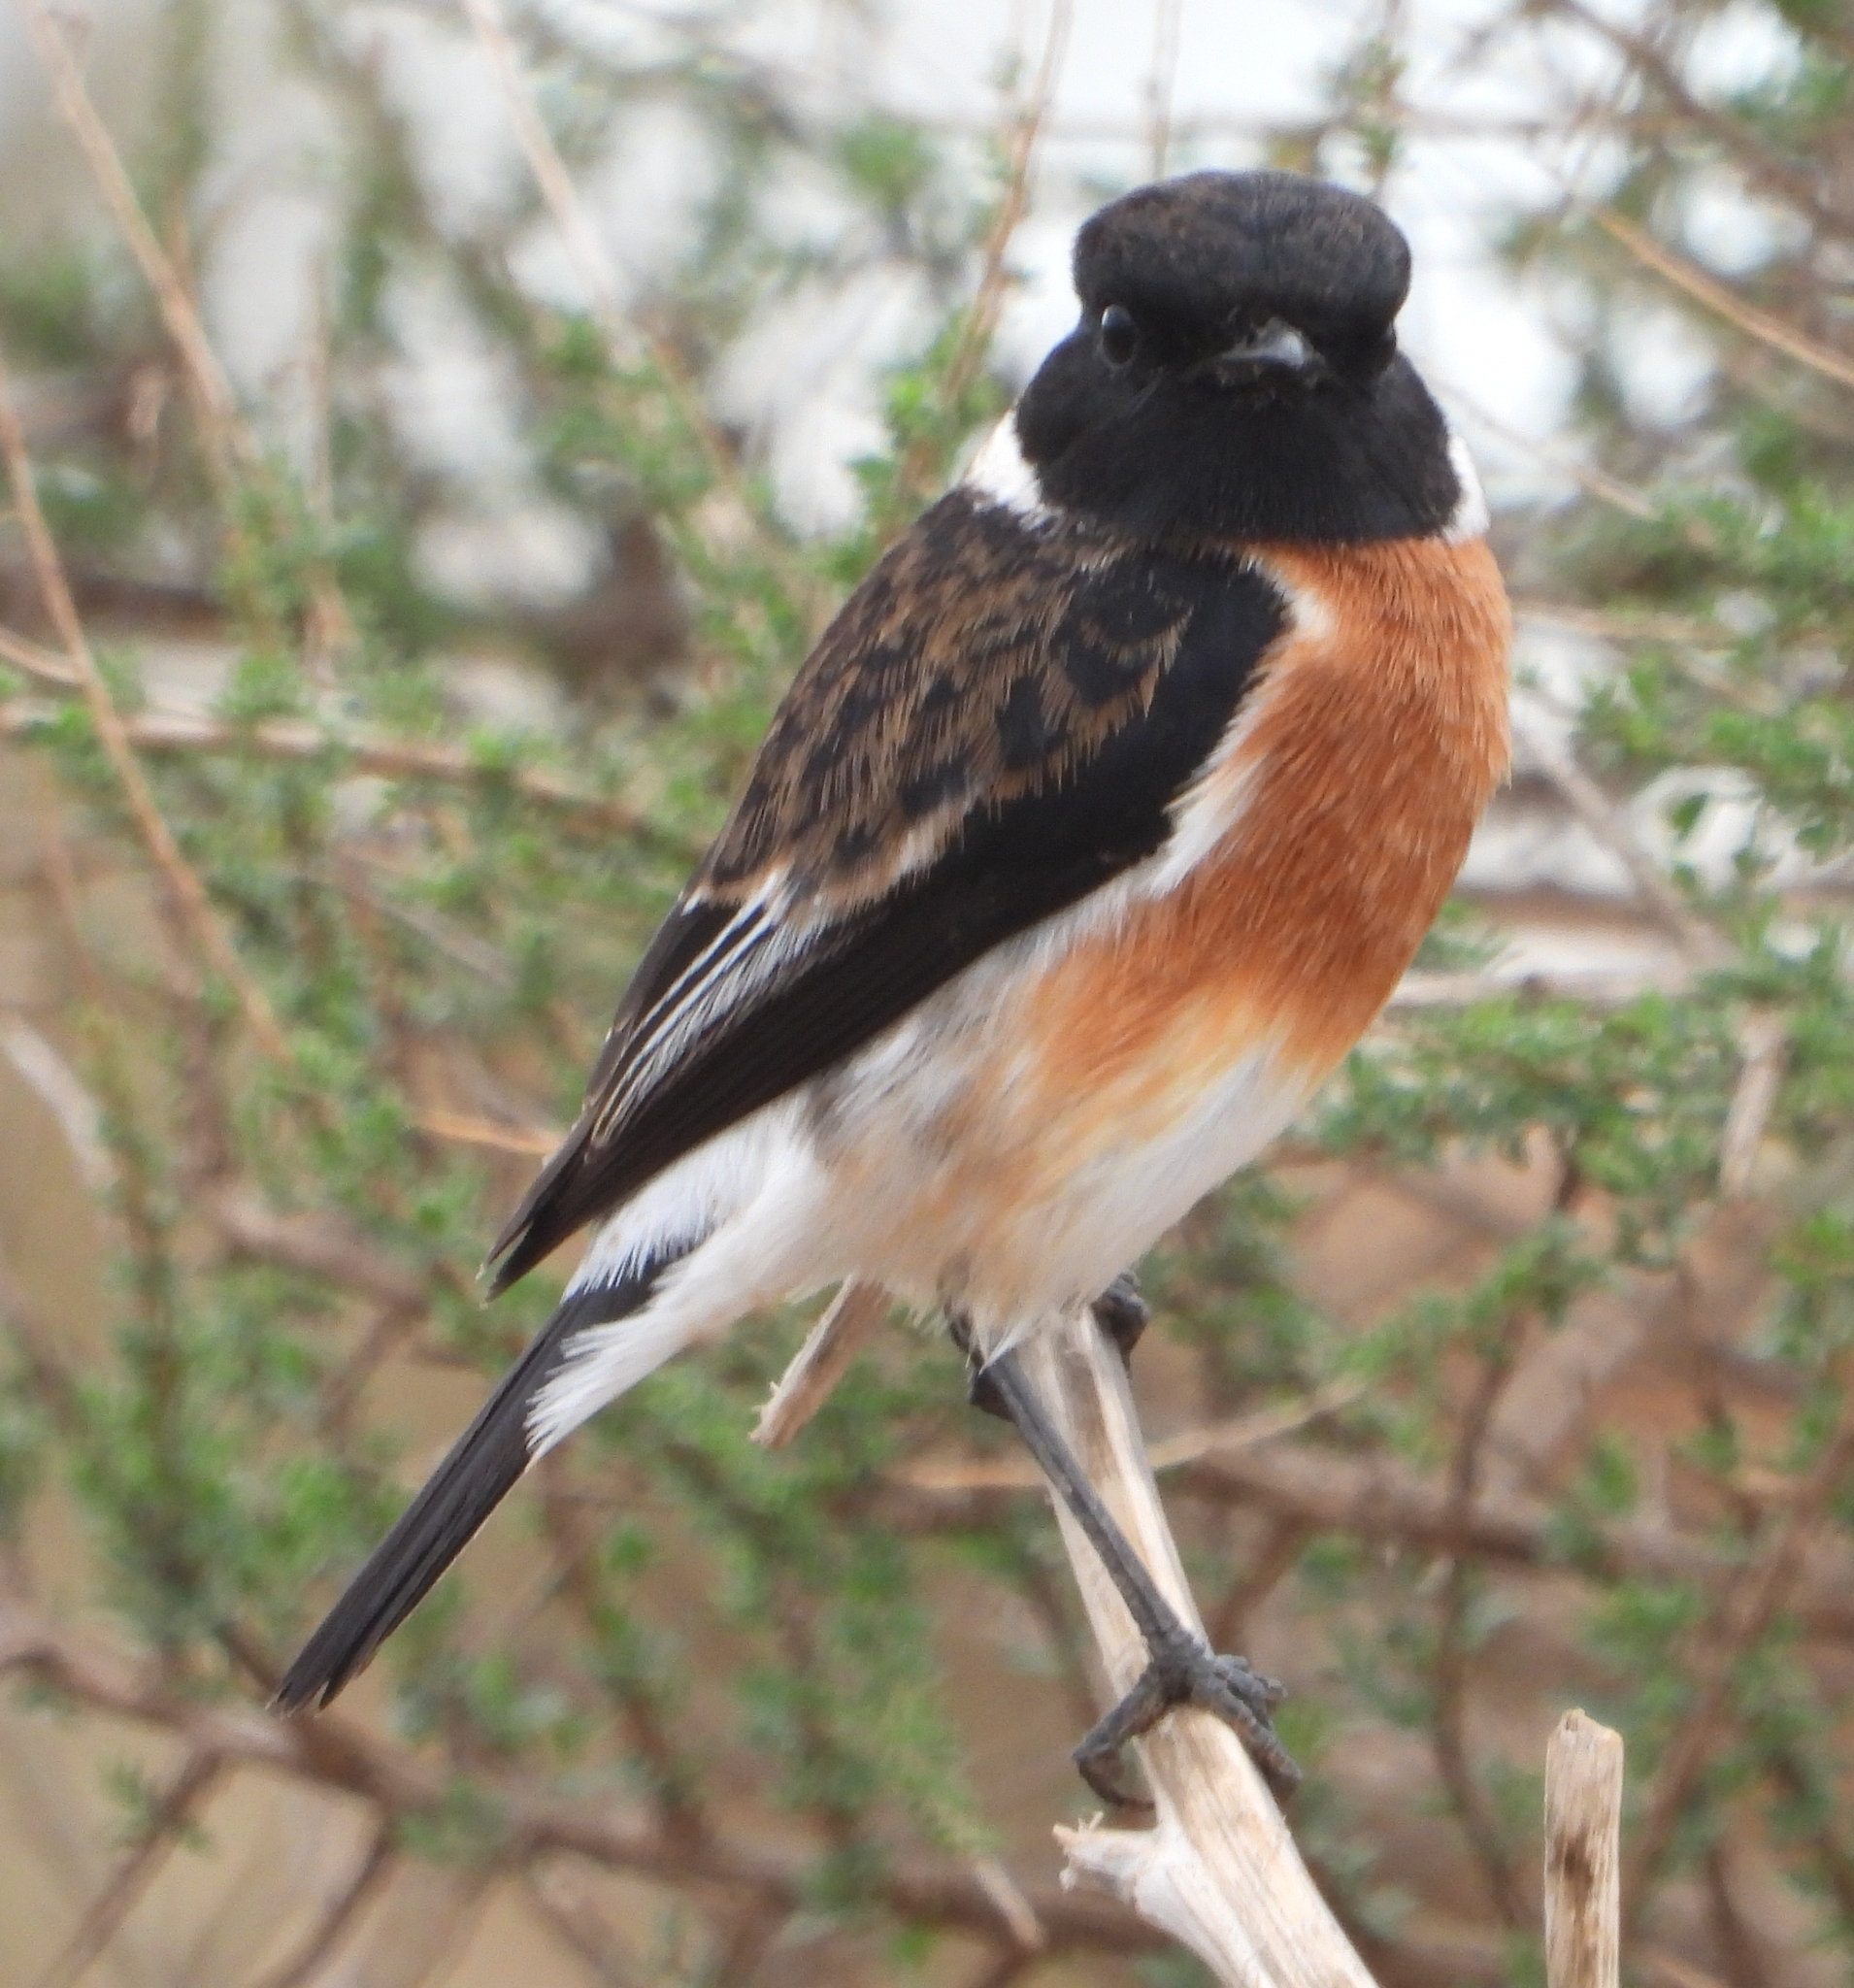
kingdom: Animalia
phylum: Chordata
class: Aves
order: Passeriformes
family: Muscicapidae
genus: Saxicola
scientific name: Saxicola torquatus
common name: African stonechat
